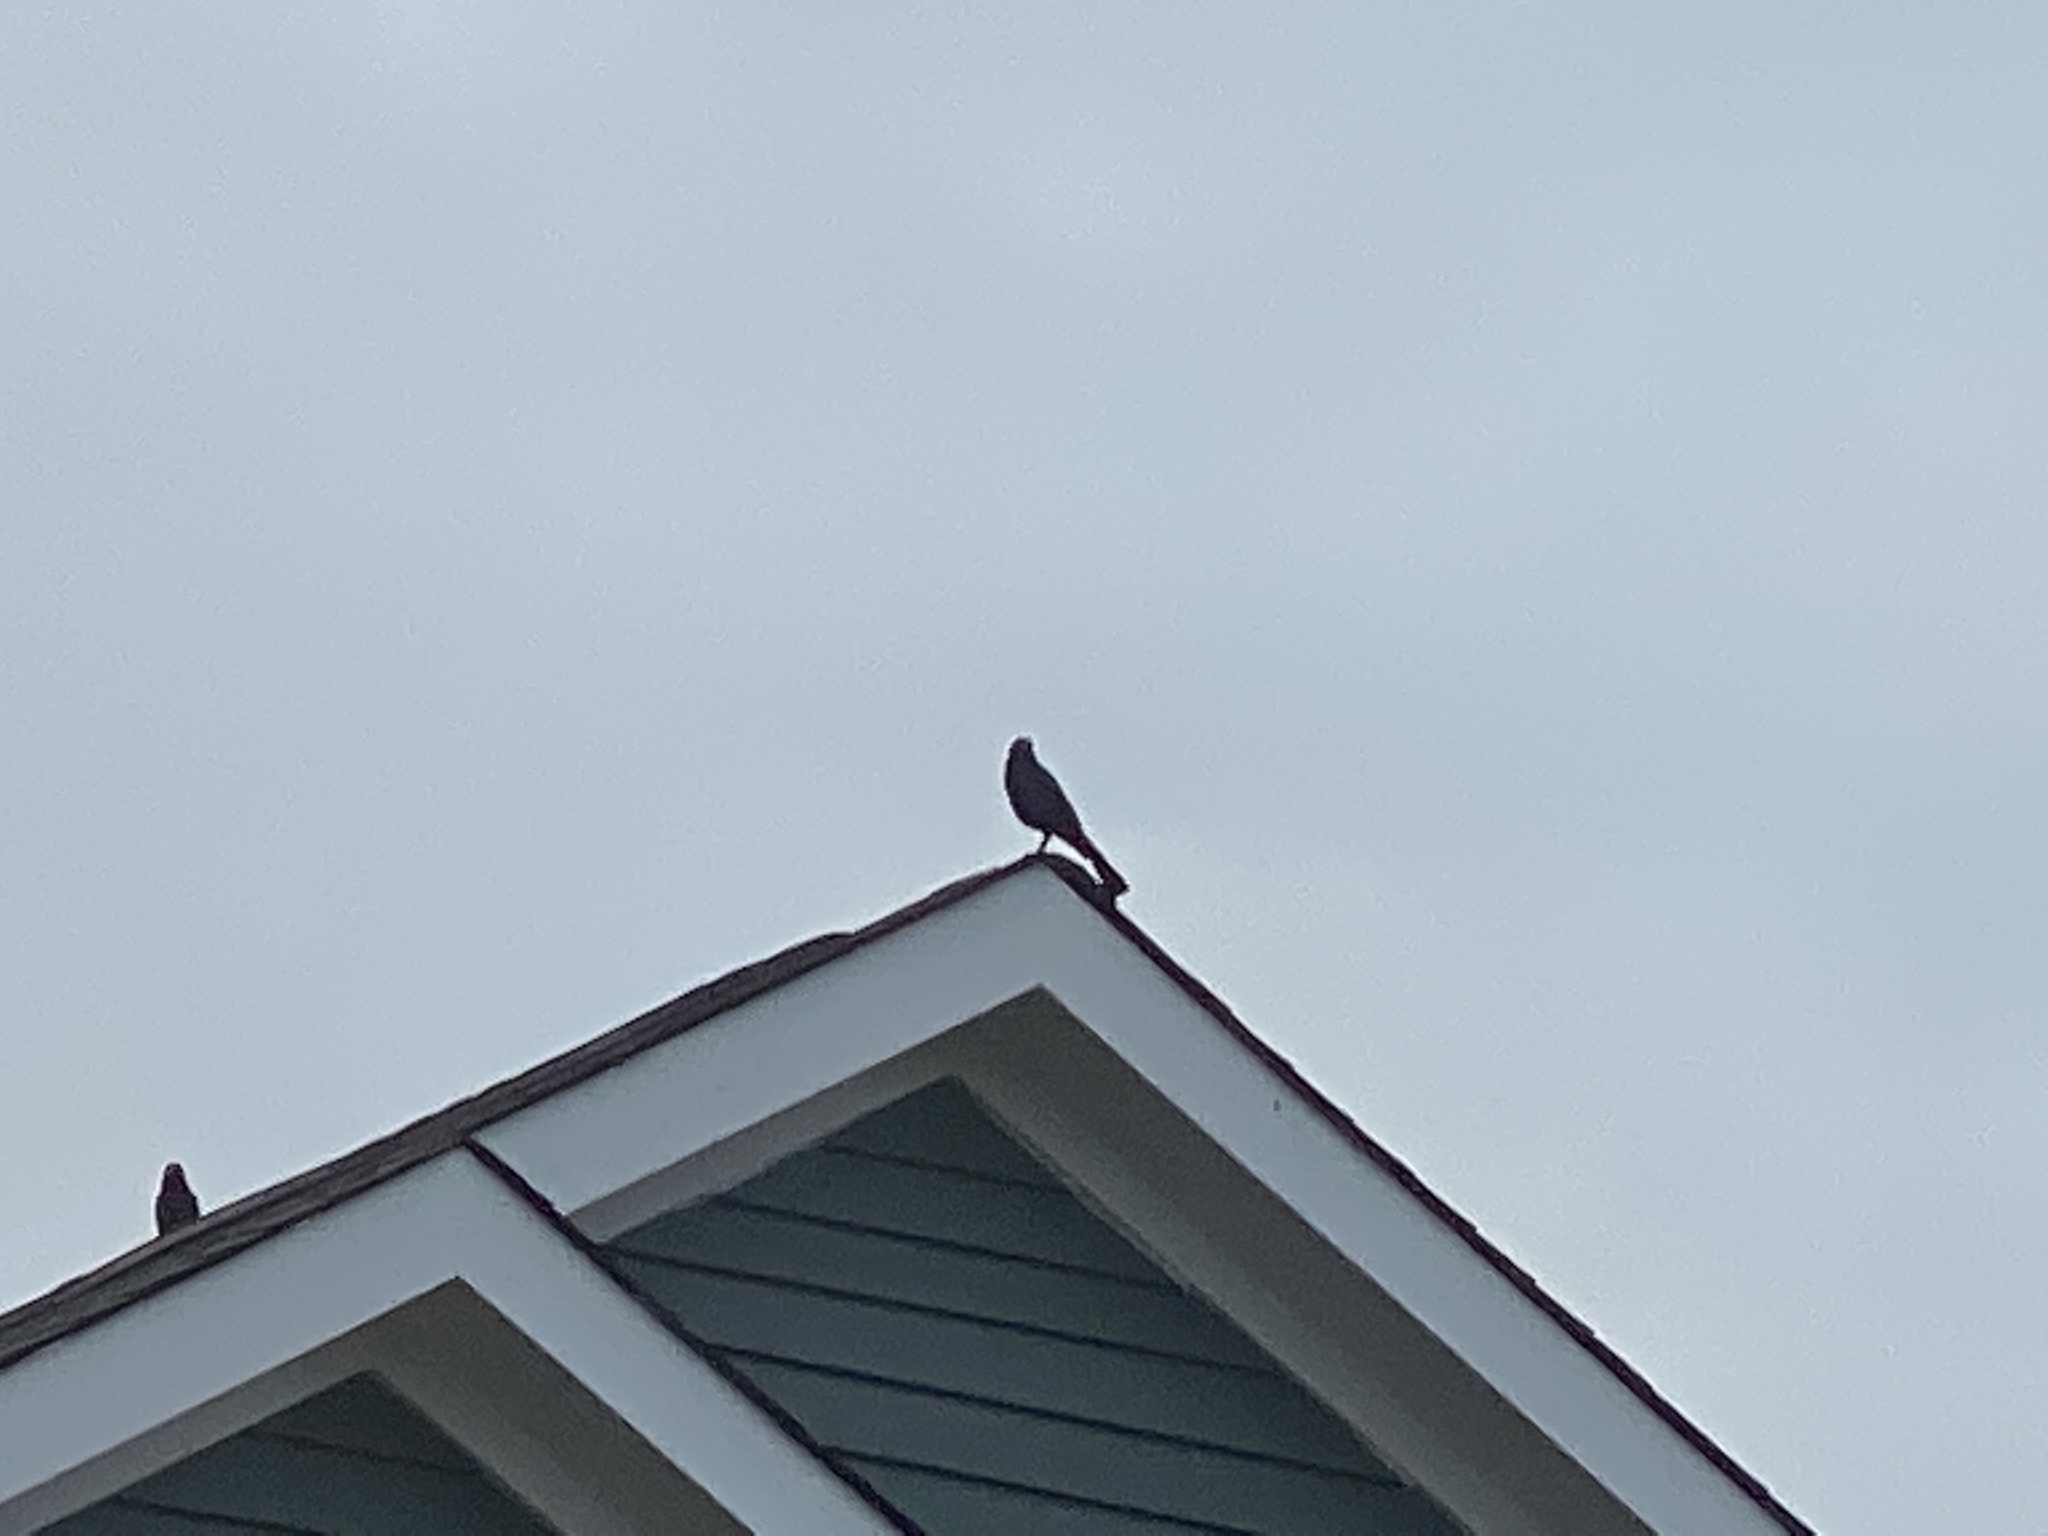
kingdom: Animalia
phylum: Chordata
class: Aves
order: Passeriformes
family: Icteridae
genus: Quiscalus
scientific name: Quiscalus major
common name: Boat-tailed grackle
